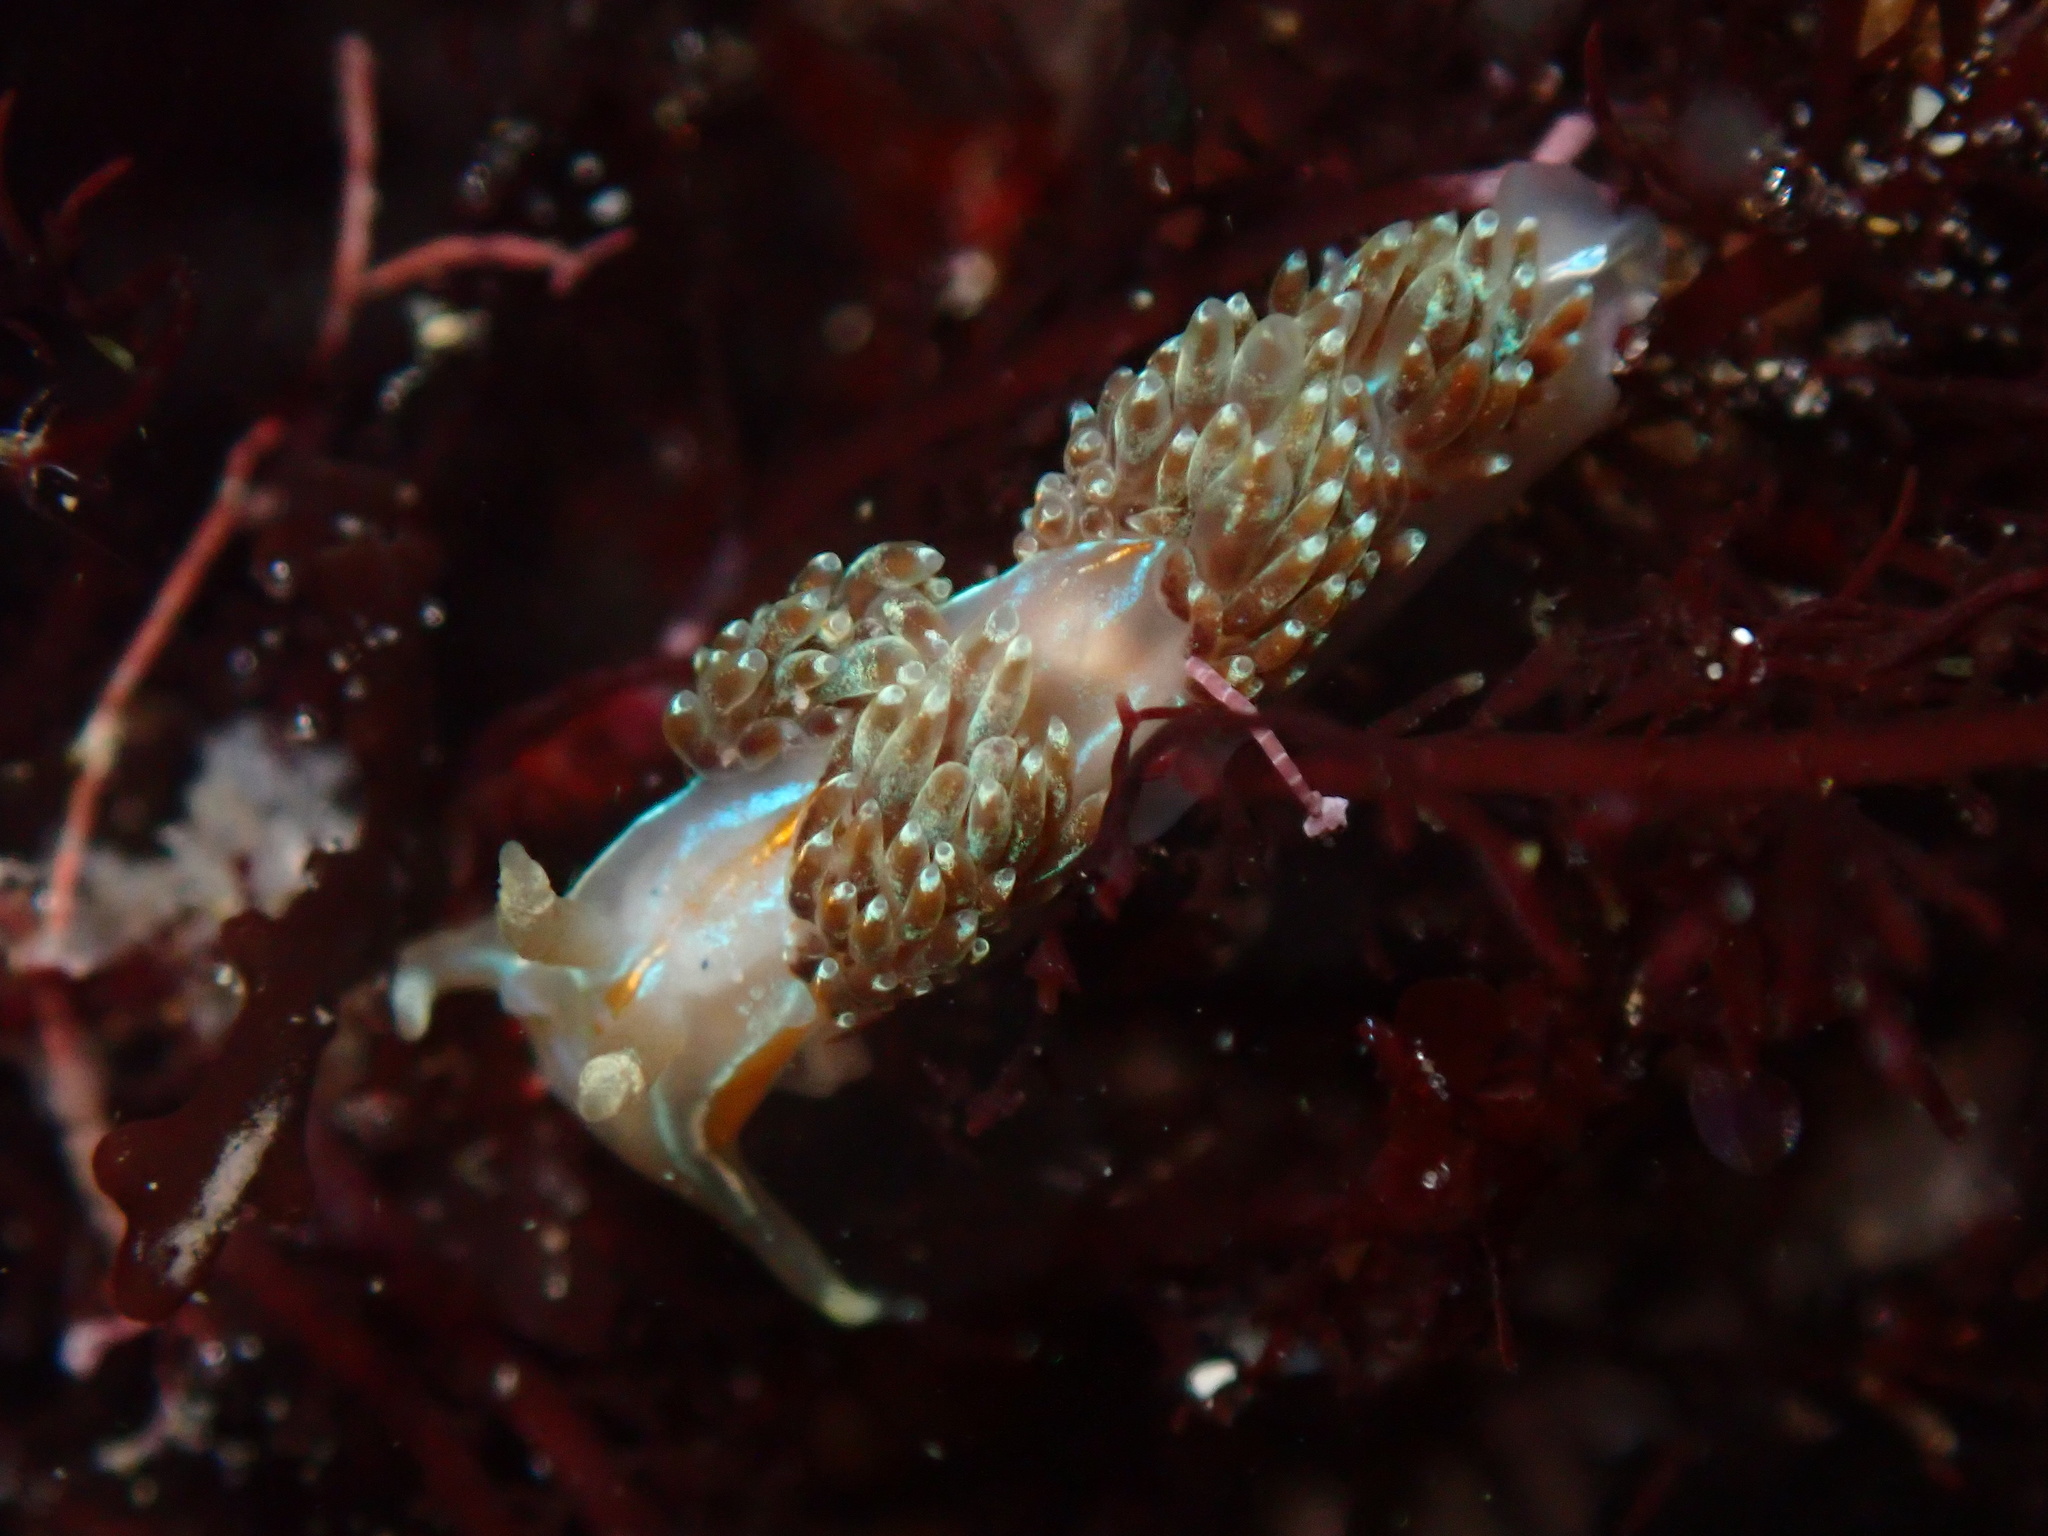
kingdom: Animalia
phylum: Mollusca
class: Gastropoda
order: Nudibranchia
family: Myrrhinidae
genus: Hermissenda
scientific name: Hermissenda opalescens
